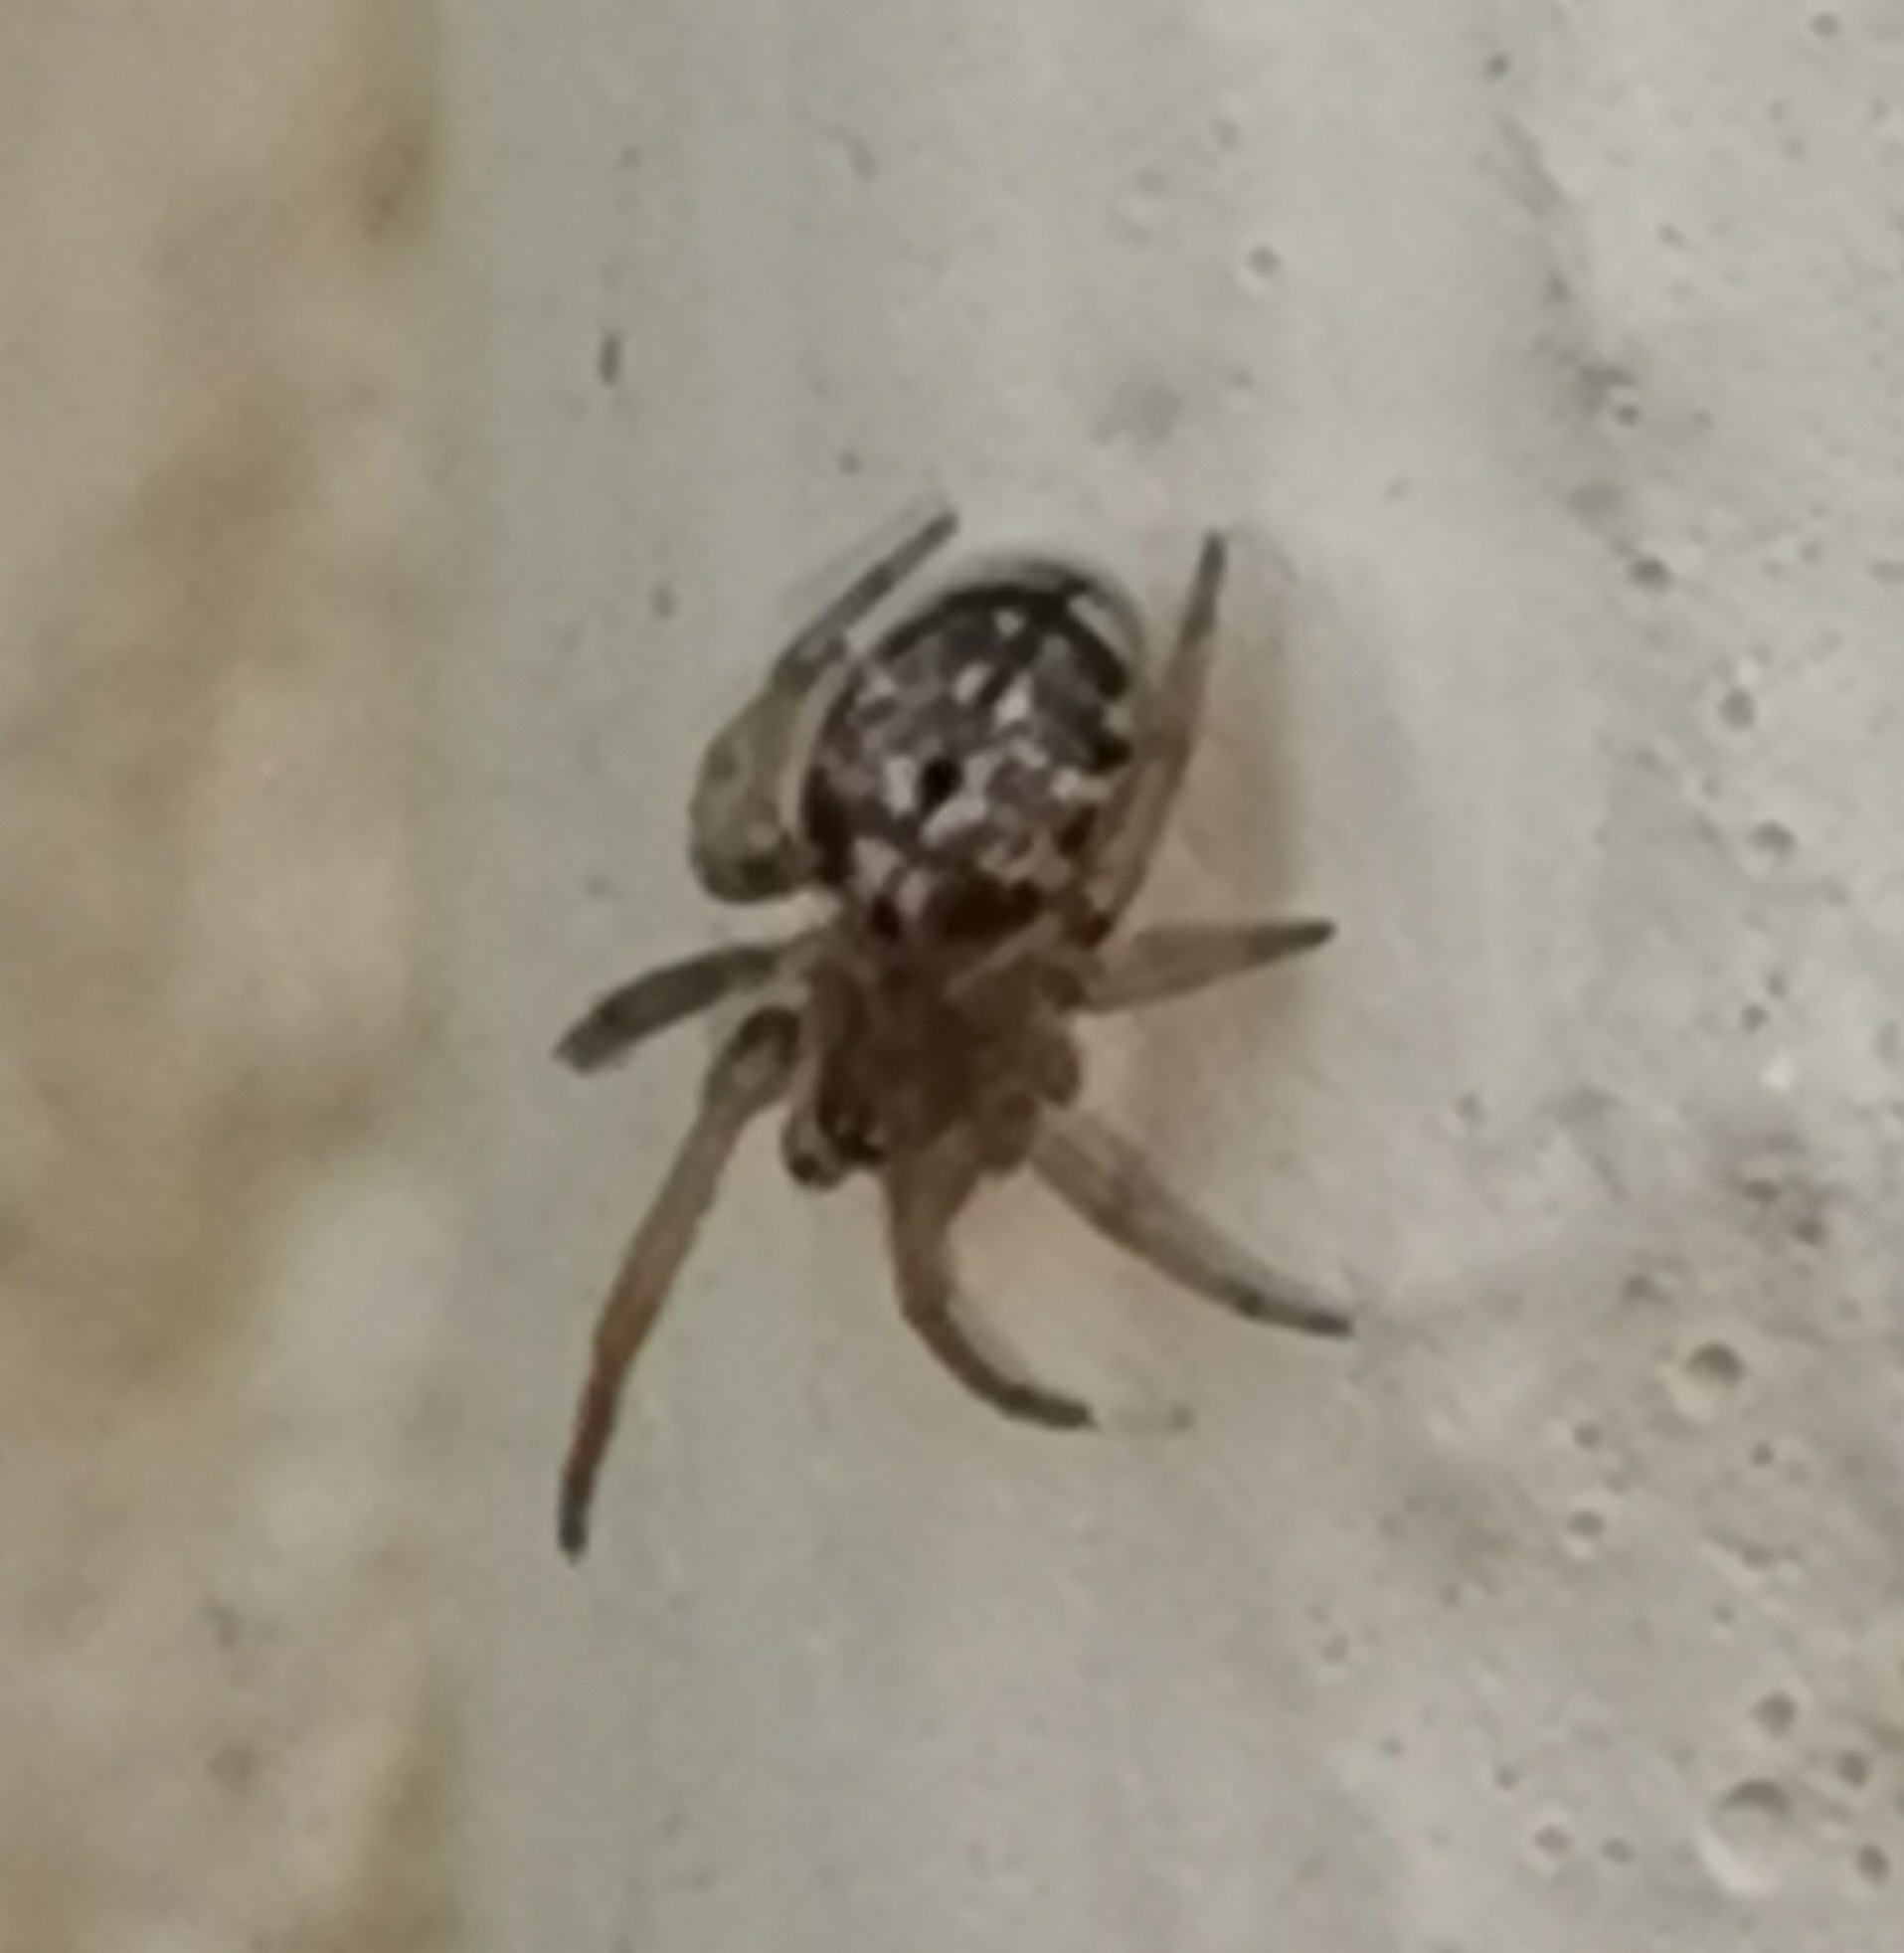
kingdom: Animalia
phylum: Arthropoda
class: Arachnida
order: Araneae
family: Araneidae
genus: Leviellus
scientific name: Leviellus stroemi
